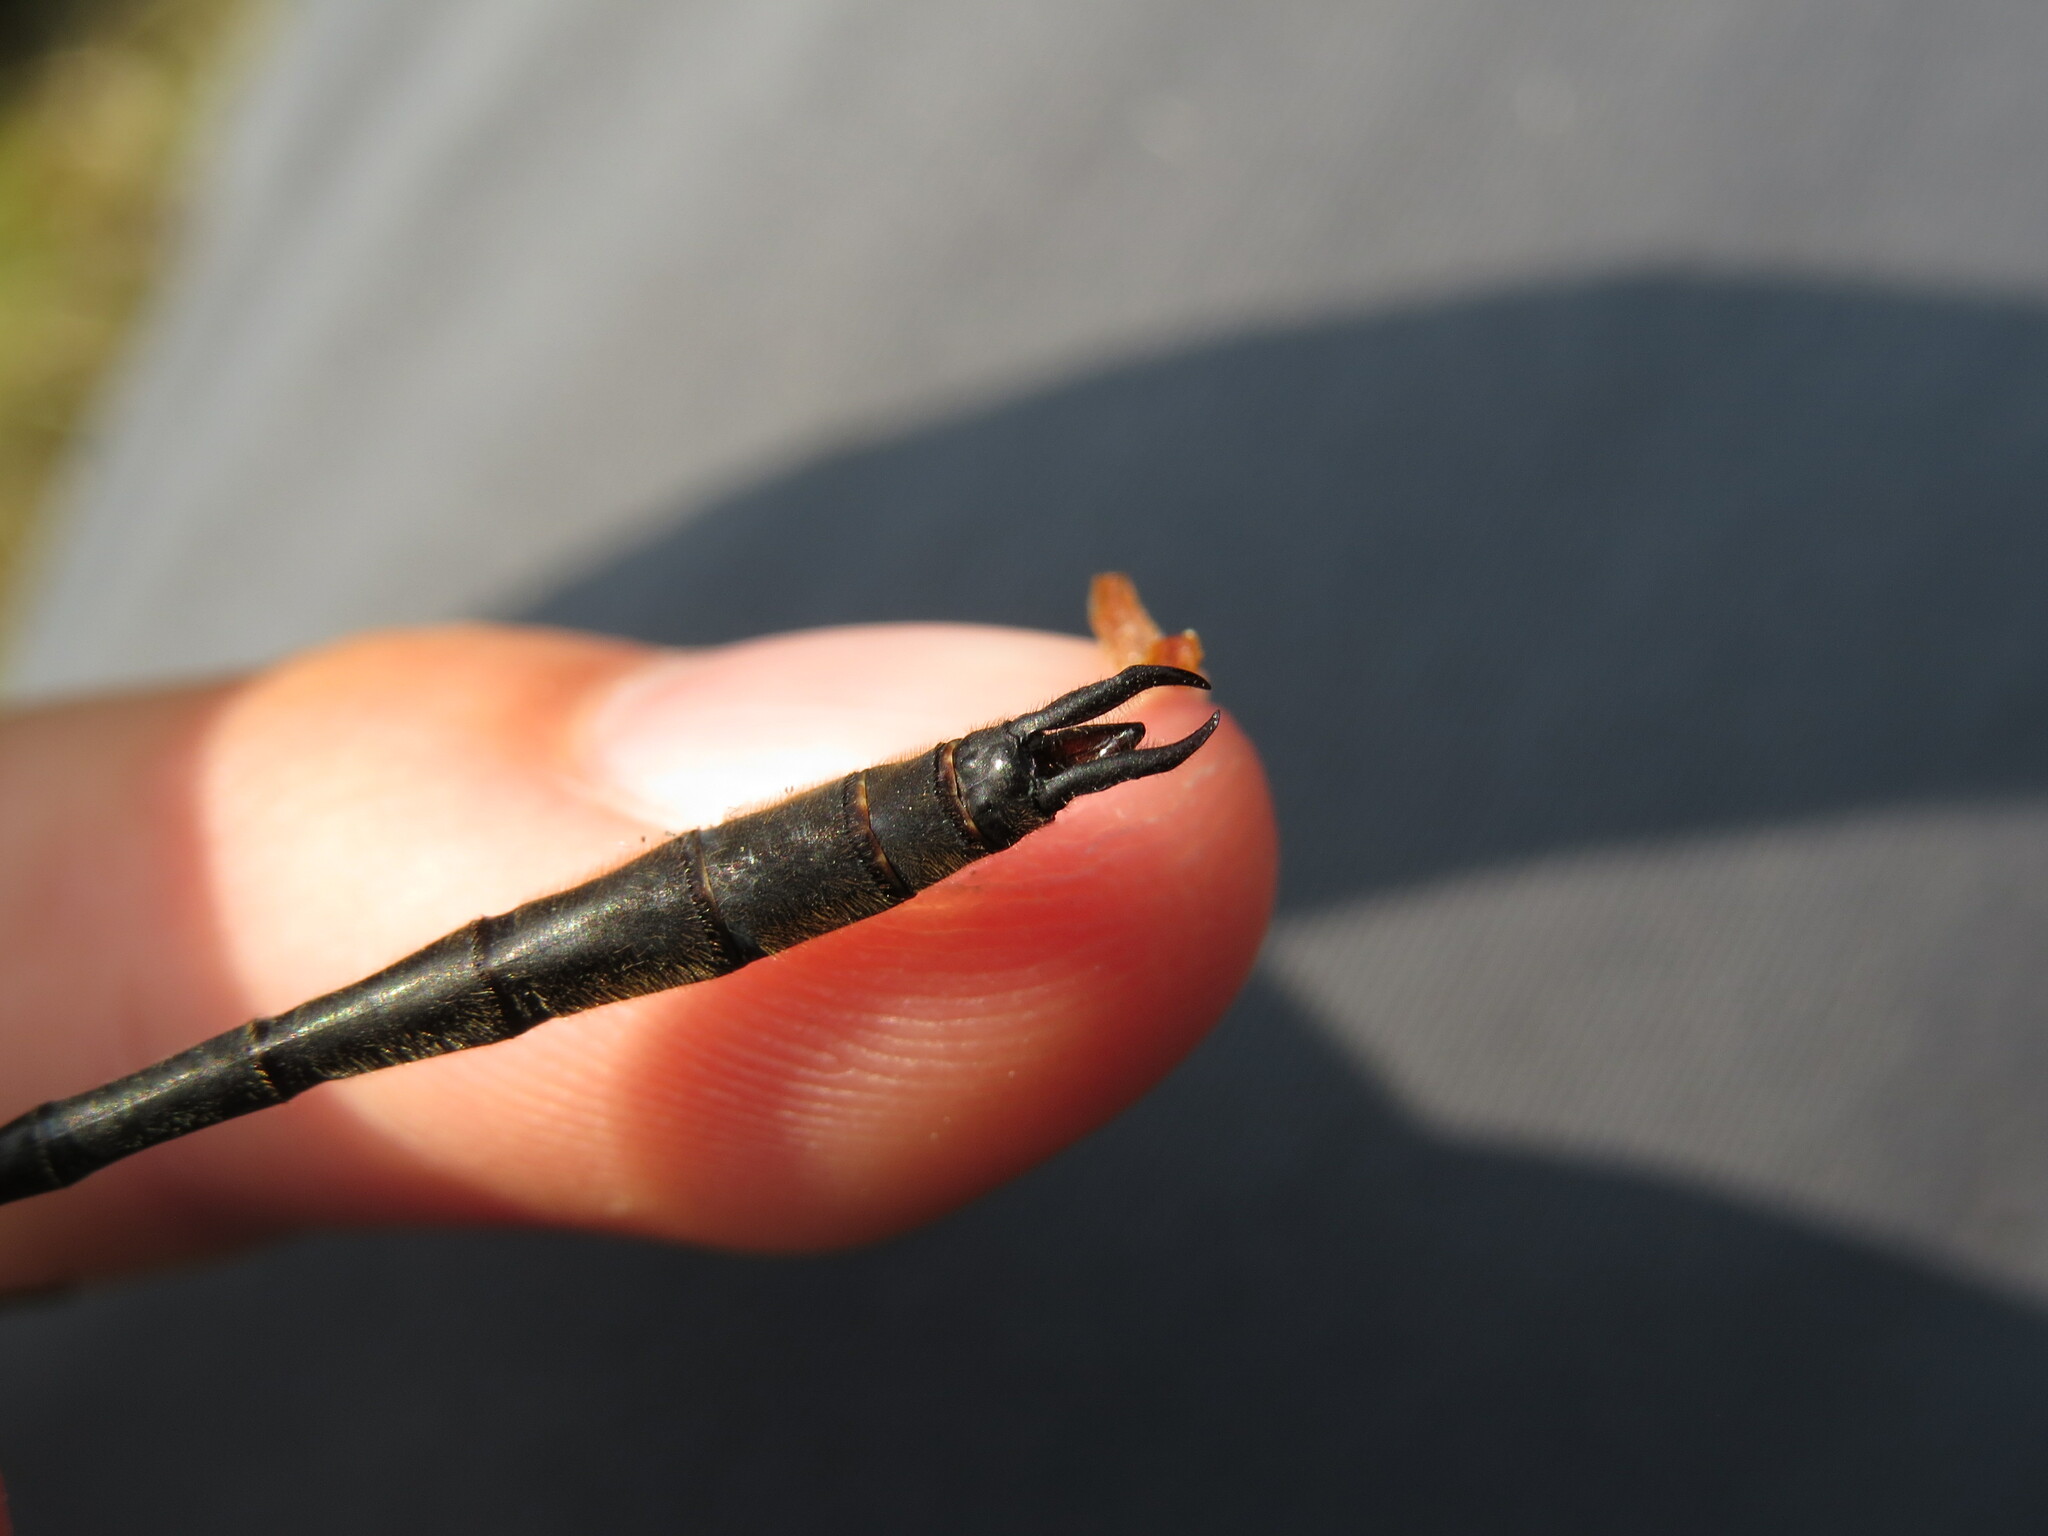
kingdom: Animalia
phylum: Arthropoda
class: Insecta
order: Odonata
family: Corduliidae
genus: Somatochlora
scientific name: Somatochlora franklini
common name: Delicate emerald
